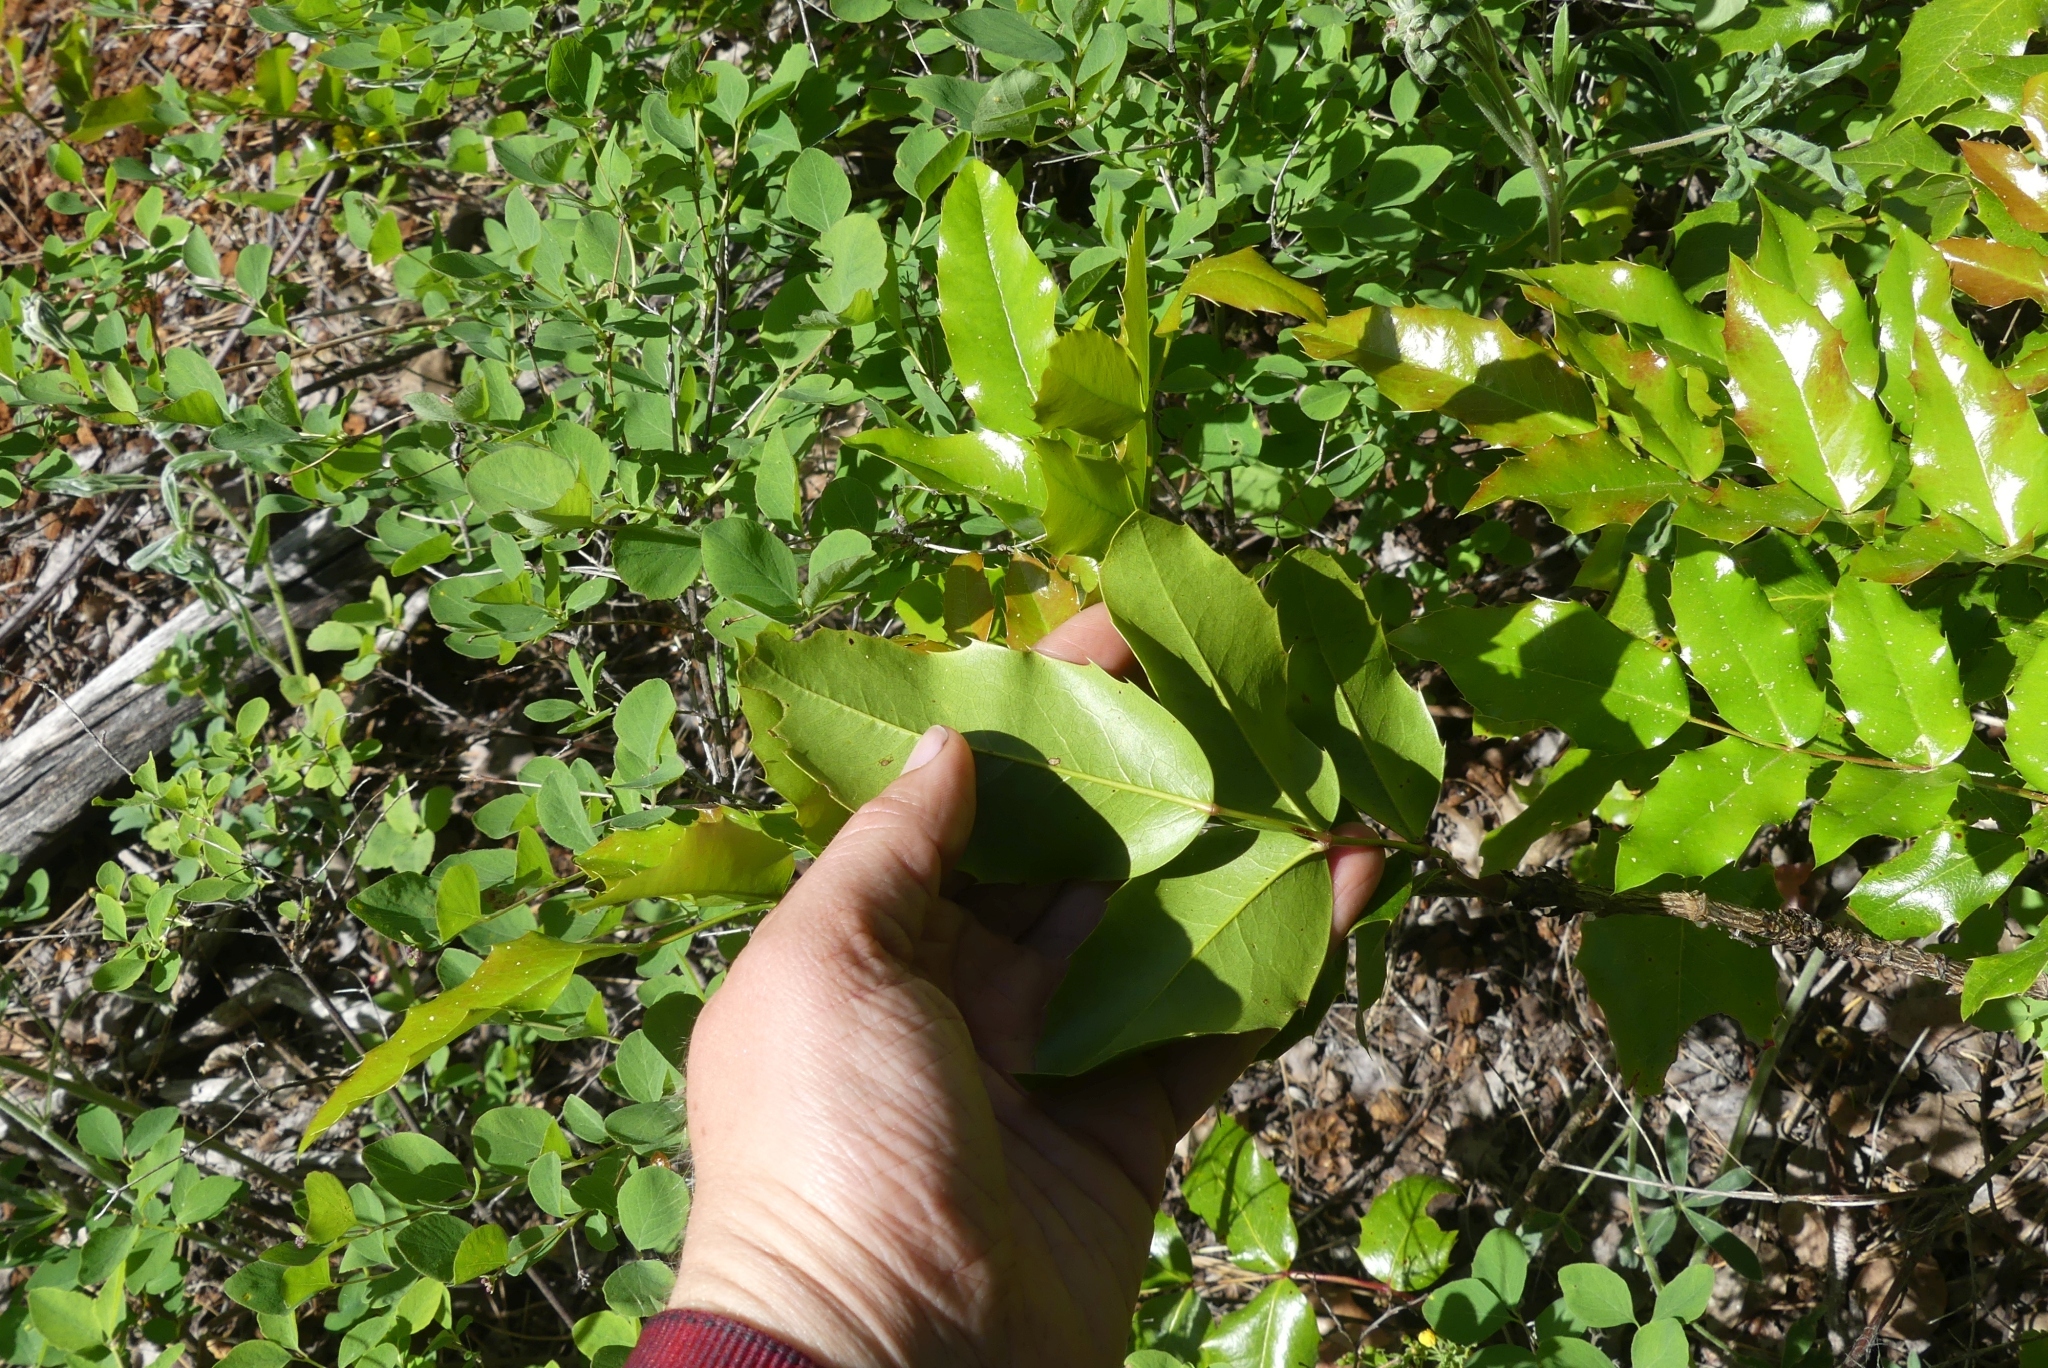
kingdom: Plantae
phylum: Tracheophyta
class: Magnoliopsida
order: Ranunculales
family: Berberidaceae
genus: Mahonia
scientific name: Mahonia aquifolium
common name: Oregon-grape
